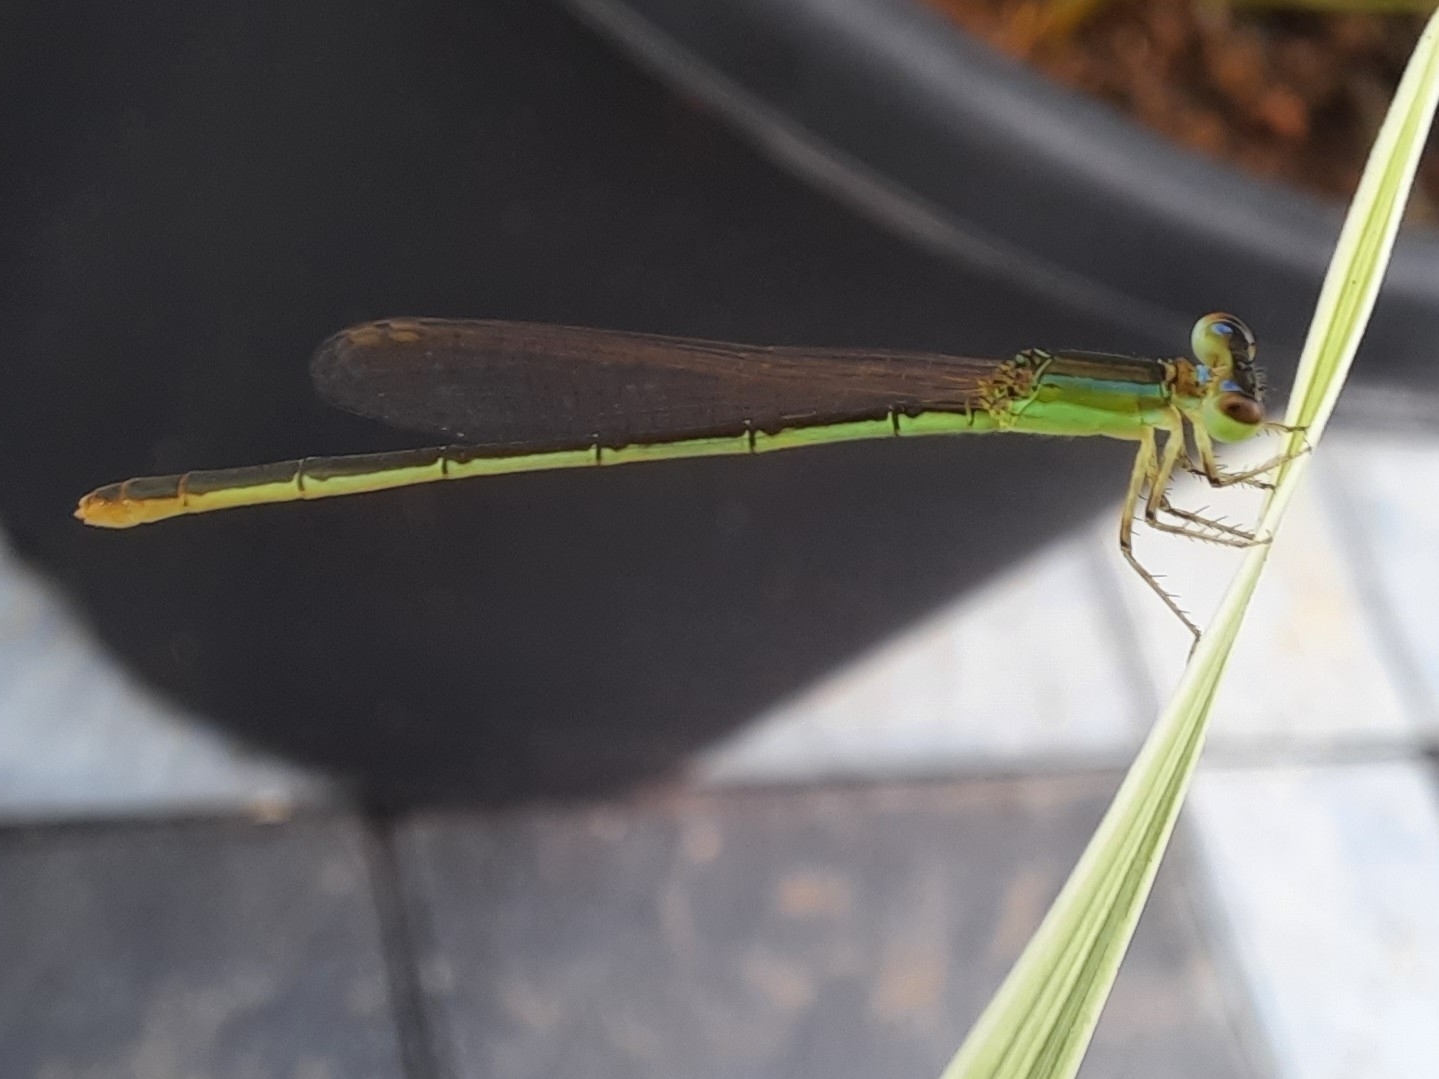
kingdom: Animalia
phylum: Arthropoda
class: Insecta
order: Odonata
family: Coenagrionidae
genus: Agriocnemis
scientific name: Agriocnemis pygmaea
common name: Pygmy wisp
